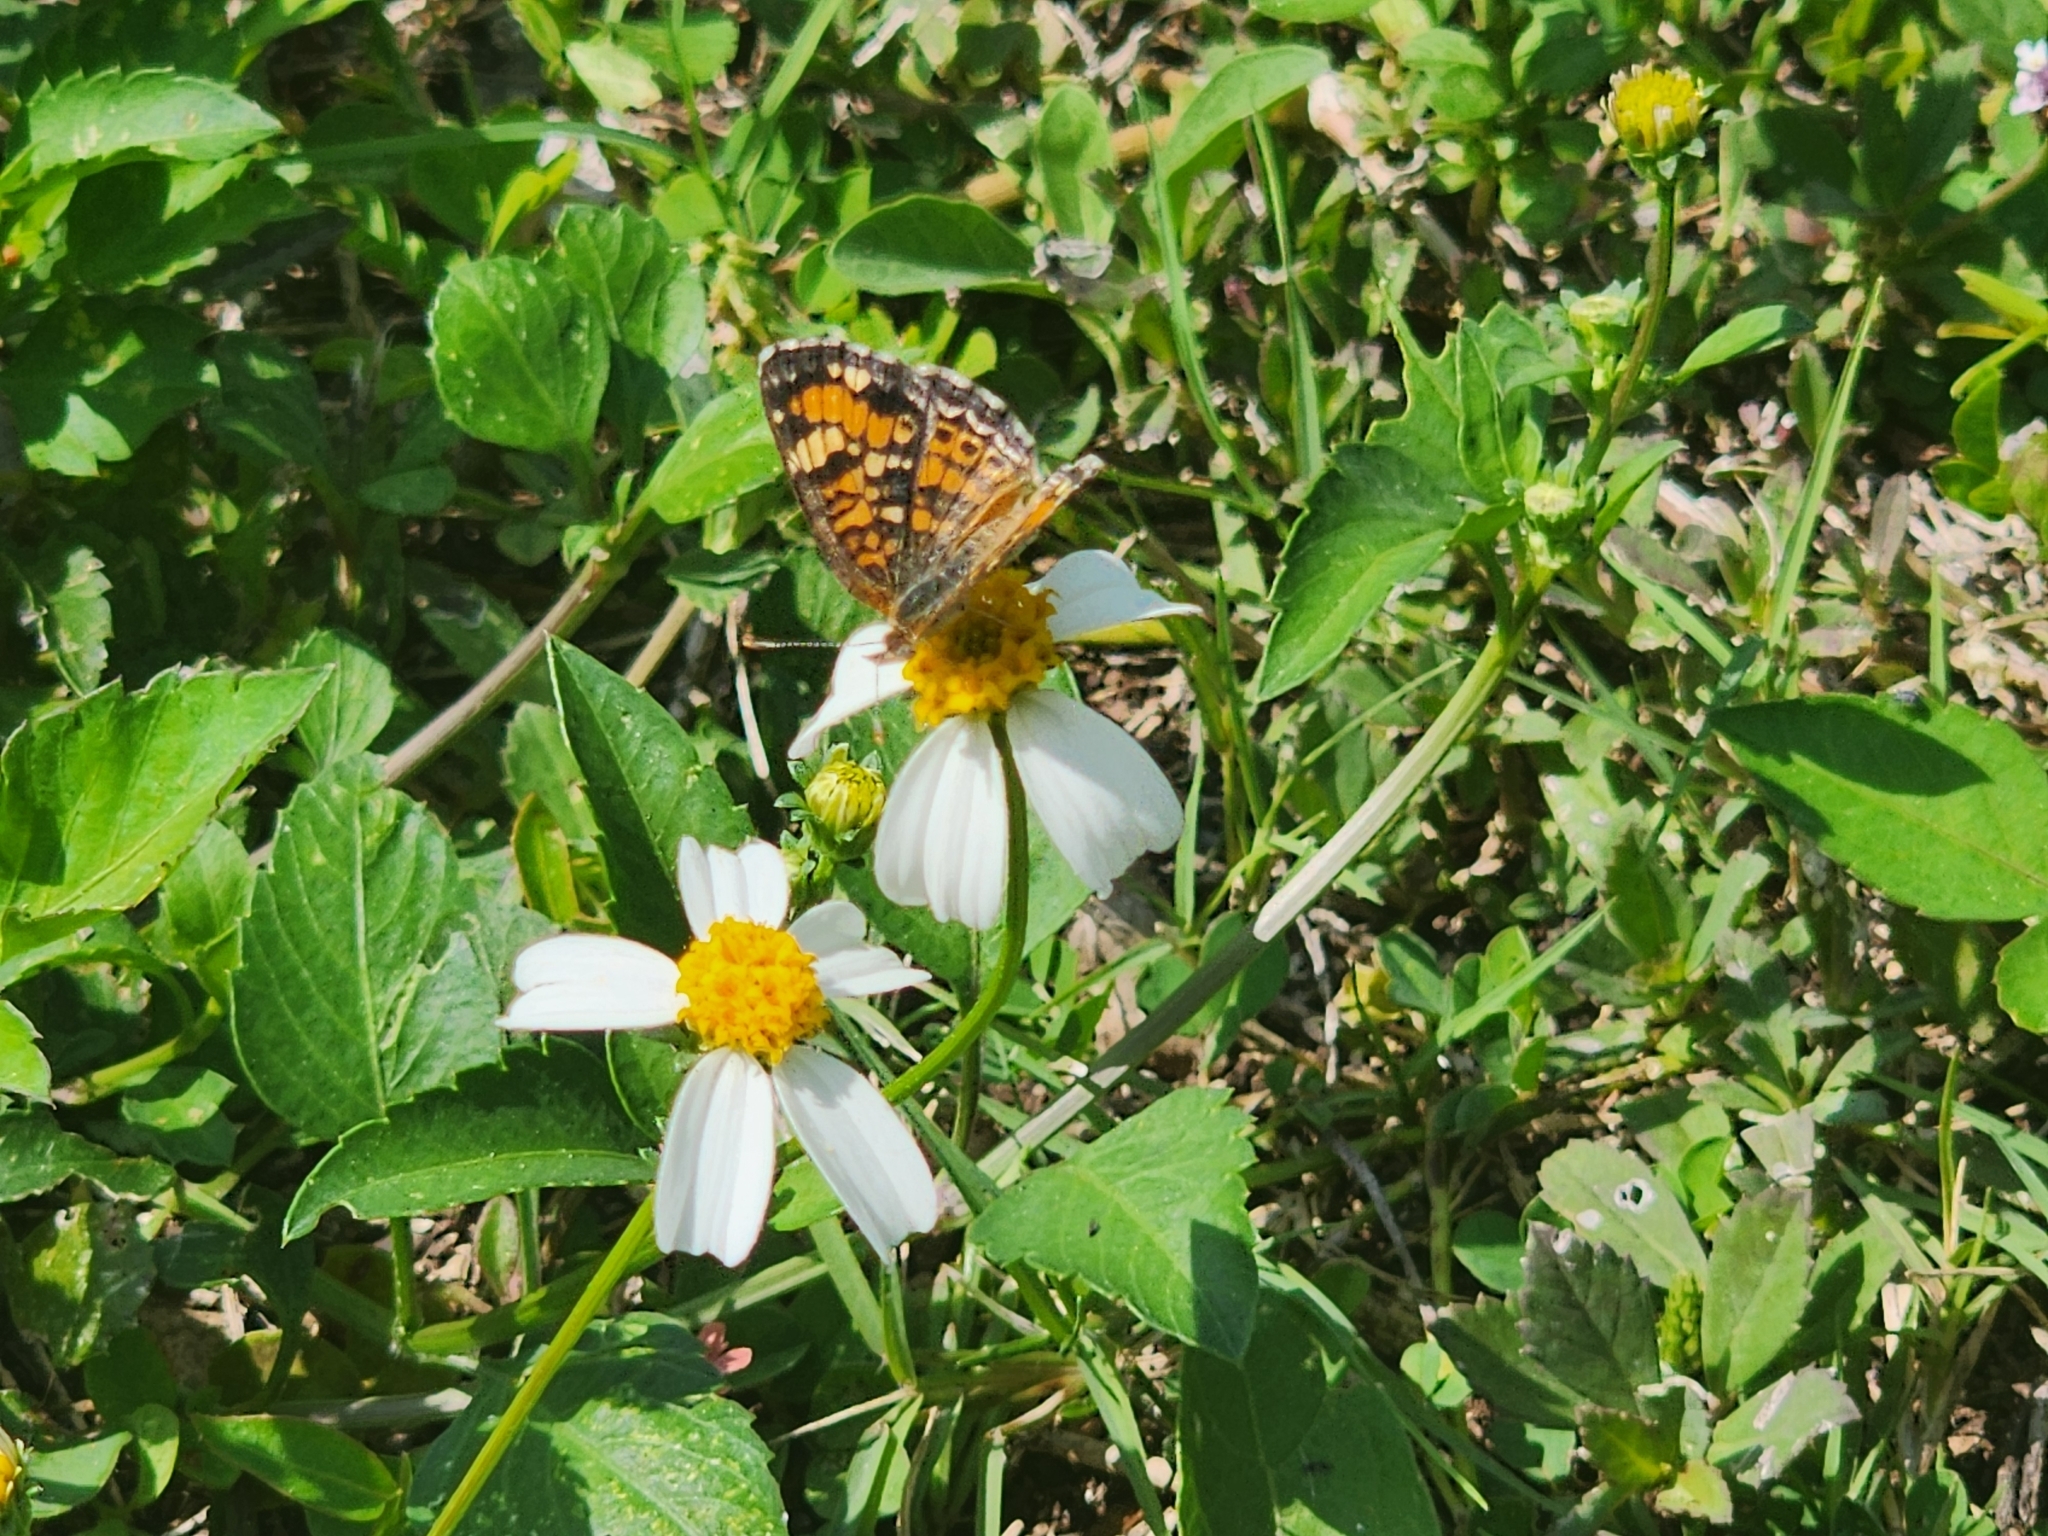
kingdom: Animalia
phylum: Arthropoda
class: Insecta
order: Lepidoptera
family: Nymphalidae
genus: Phyciodes
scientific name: Phyciodes phaon
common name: Phaon crescent
